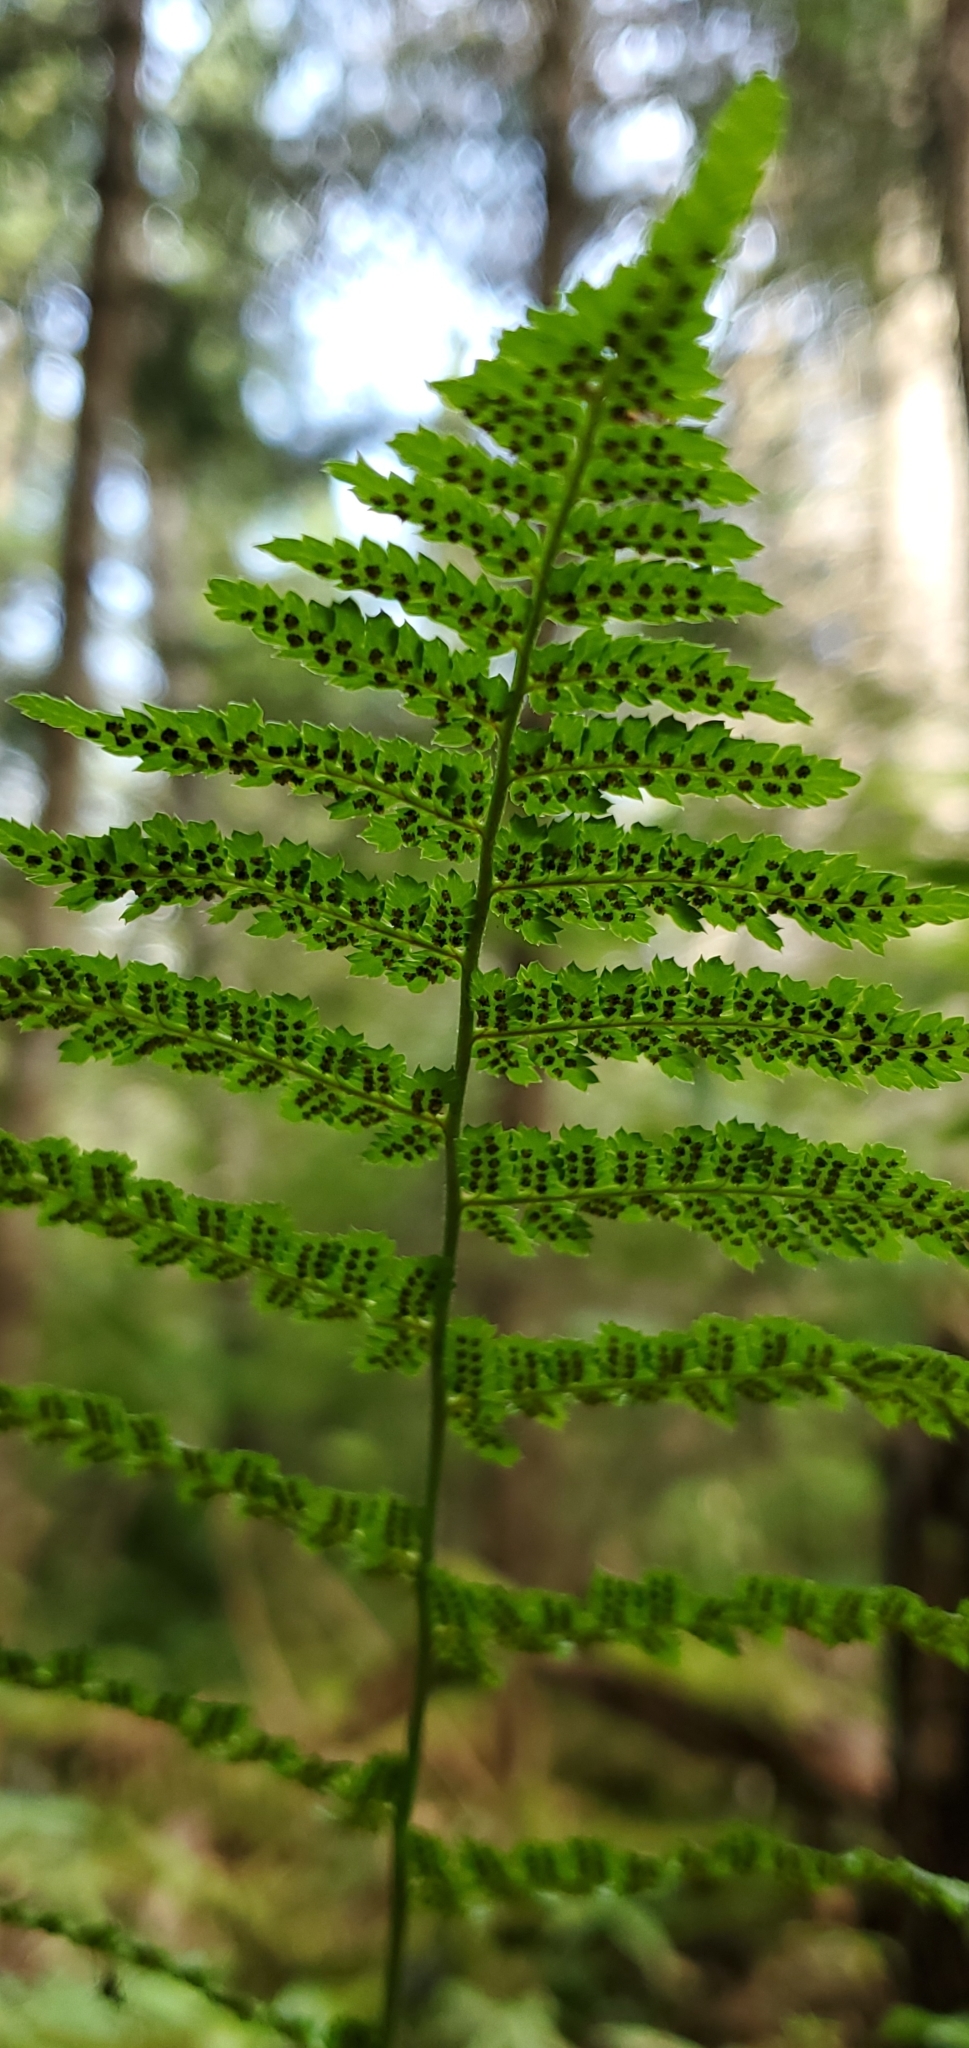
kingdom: Plantae
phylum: Tracheophyta
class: Polypodiopsida
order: Polypodiales
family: Dryopteridaceae
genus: Dryopteris
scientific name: Dryopteris intermedia
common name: Evergreen wood fern
